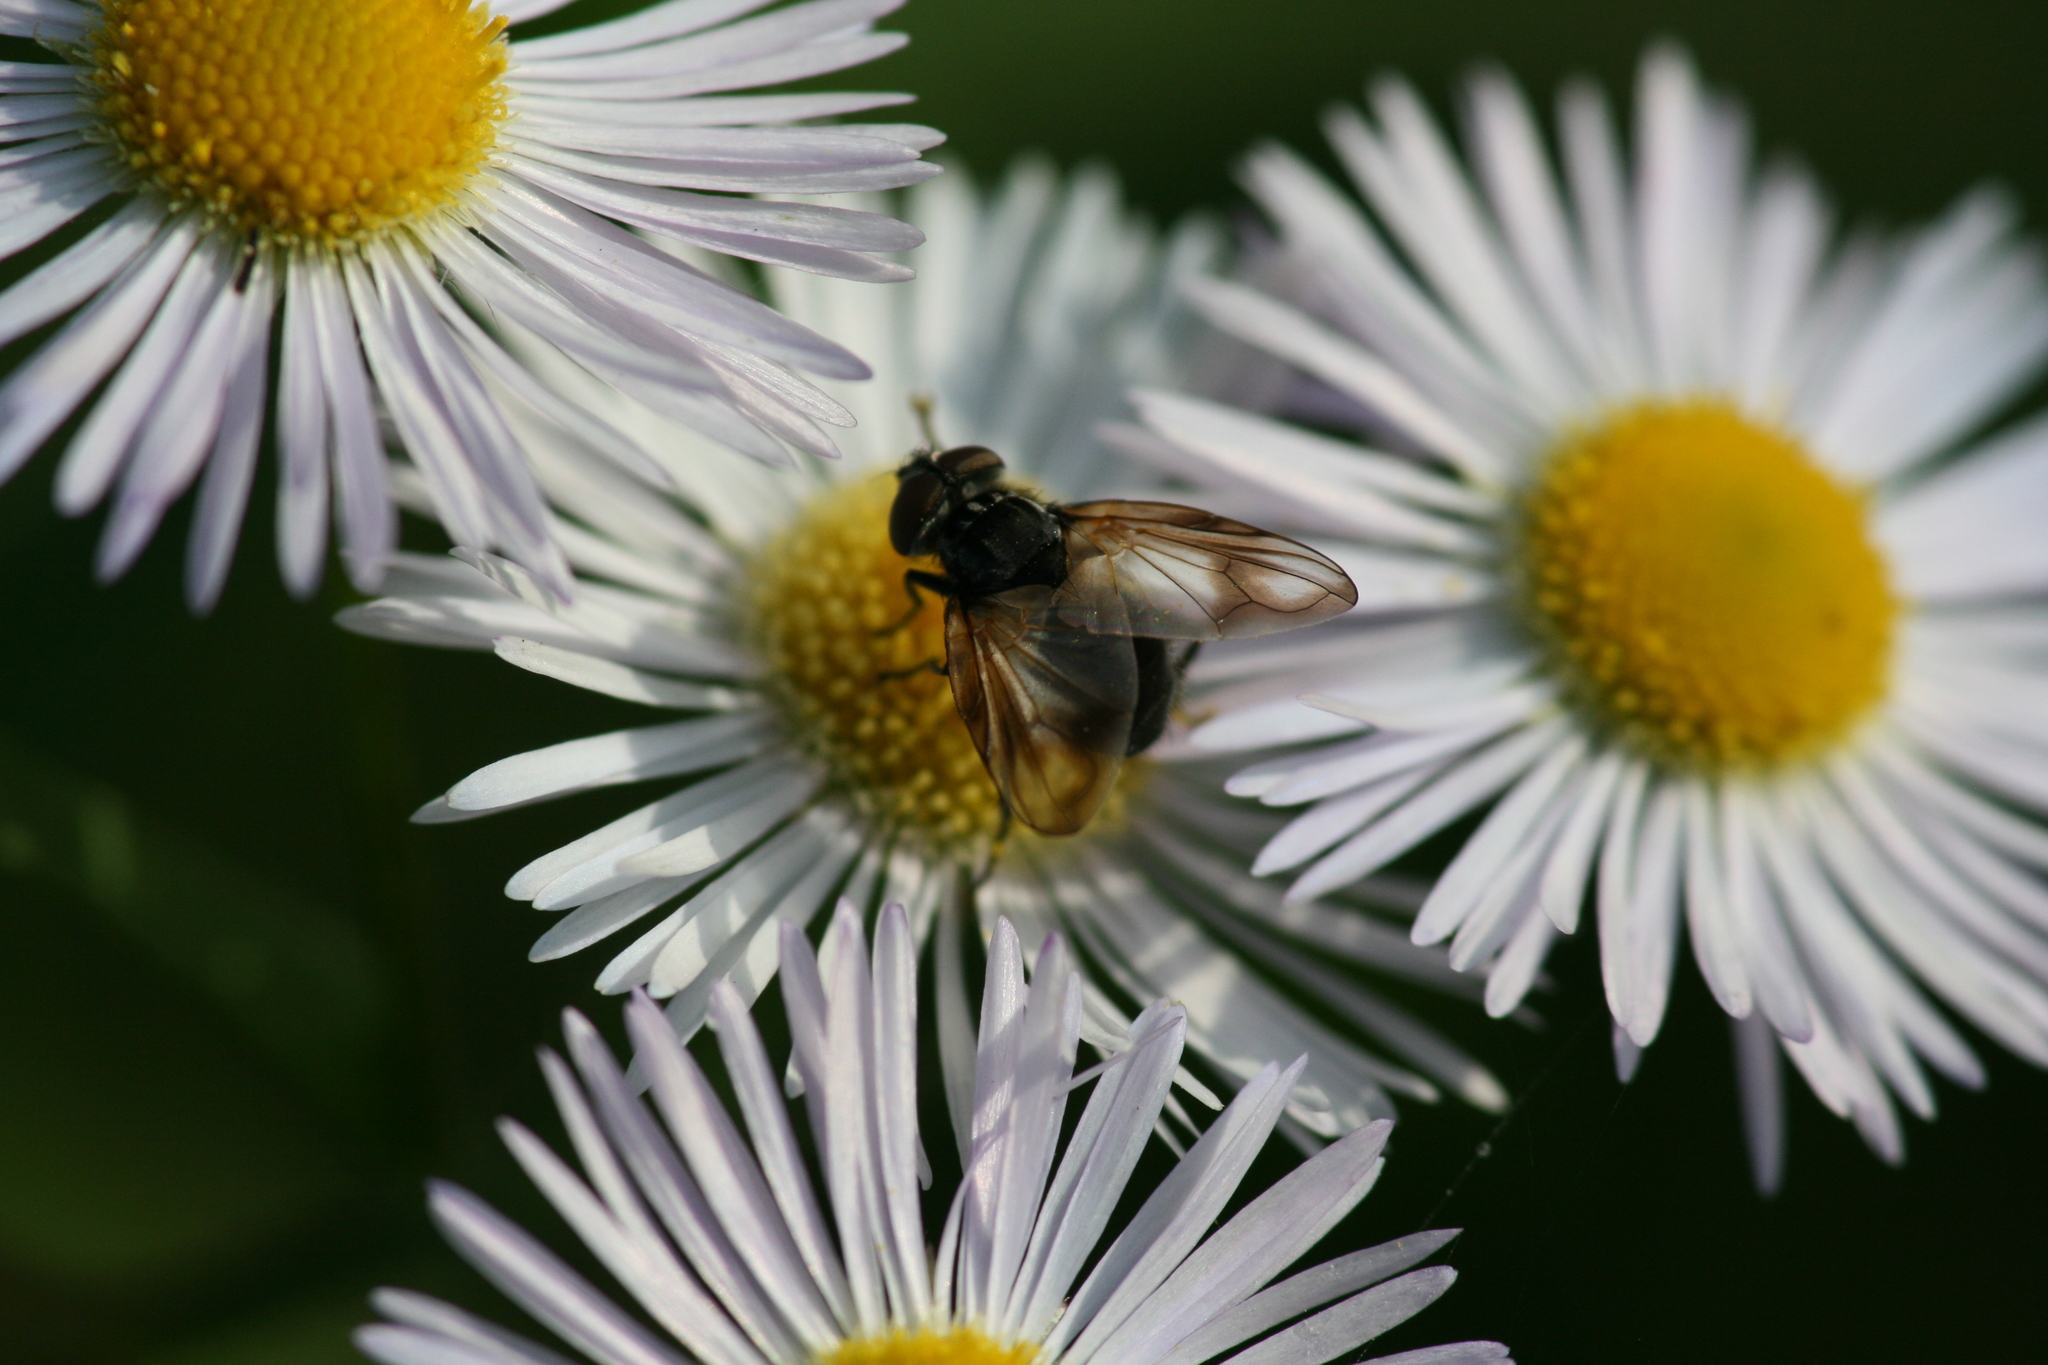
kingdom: Animalia
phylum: Arthropoda
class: Insecta
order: Diptera
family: Tachinidae
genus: Phasia
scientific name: Phasia obesa
